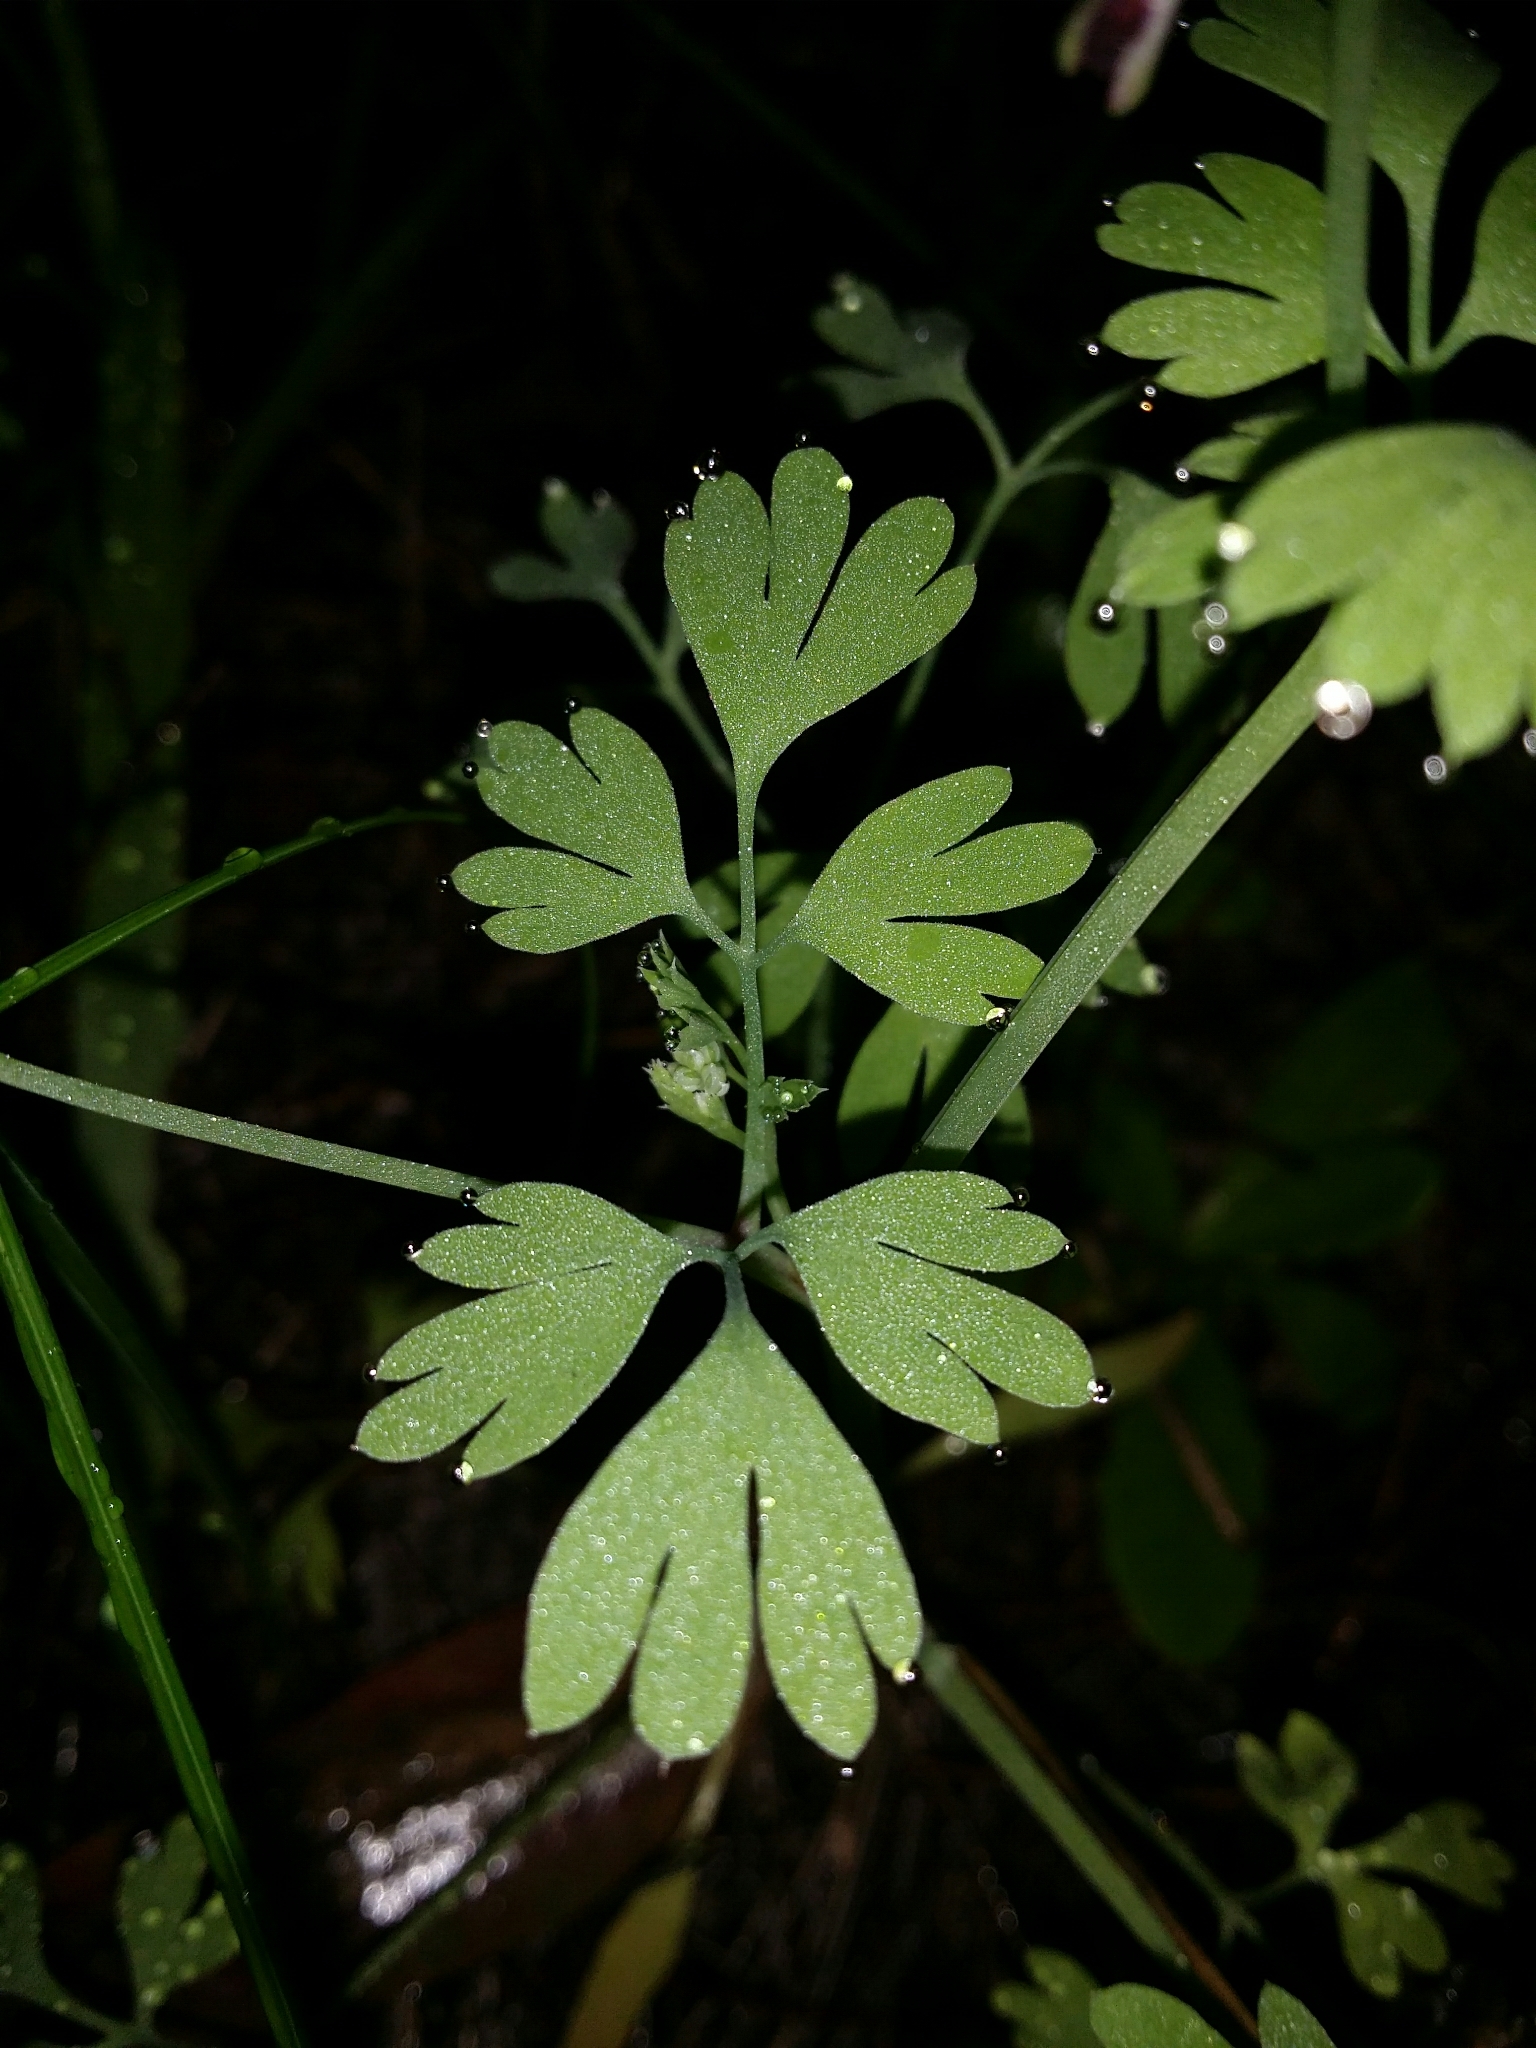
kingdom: Plantae
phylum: Tracheophyta
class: Magnoliopsida
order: Ranunculales
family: Papaveraceae
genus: Fumaria
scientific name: Fumaria capreolata
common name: White ramping-fumitory
